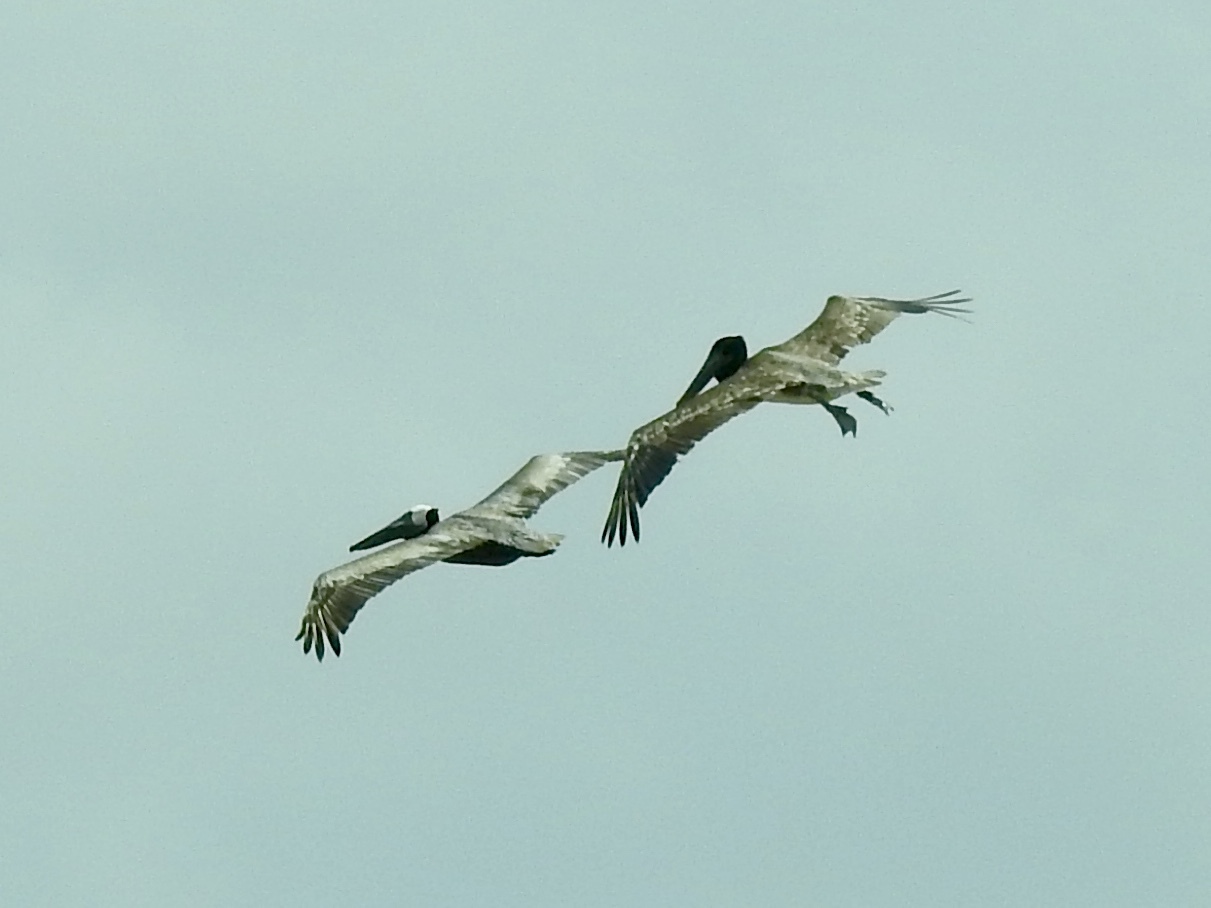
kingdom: Animalia
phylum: Chordata
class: Aves
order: Pelecaniformes
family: Pelecanidae
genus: Pelecanus
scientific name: Pelecanus occidentalis
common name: Brown pelican
